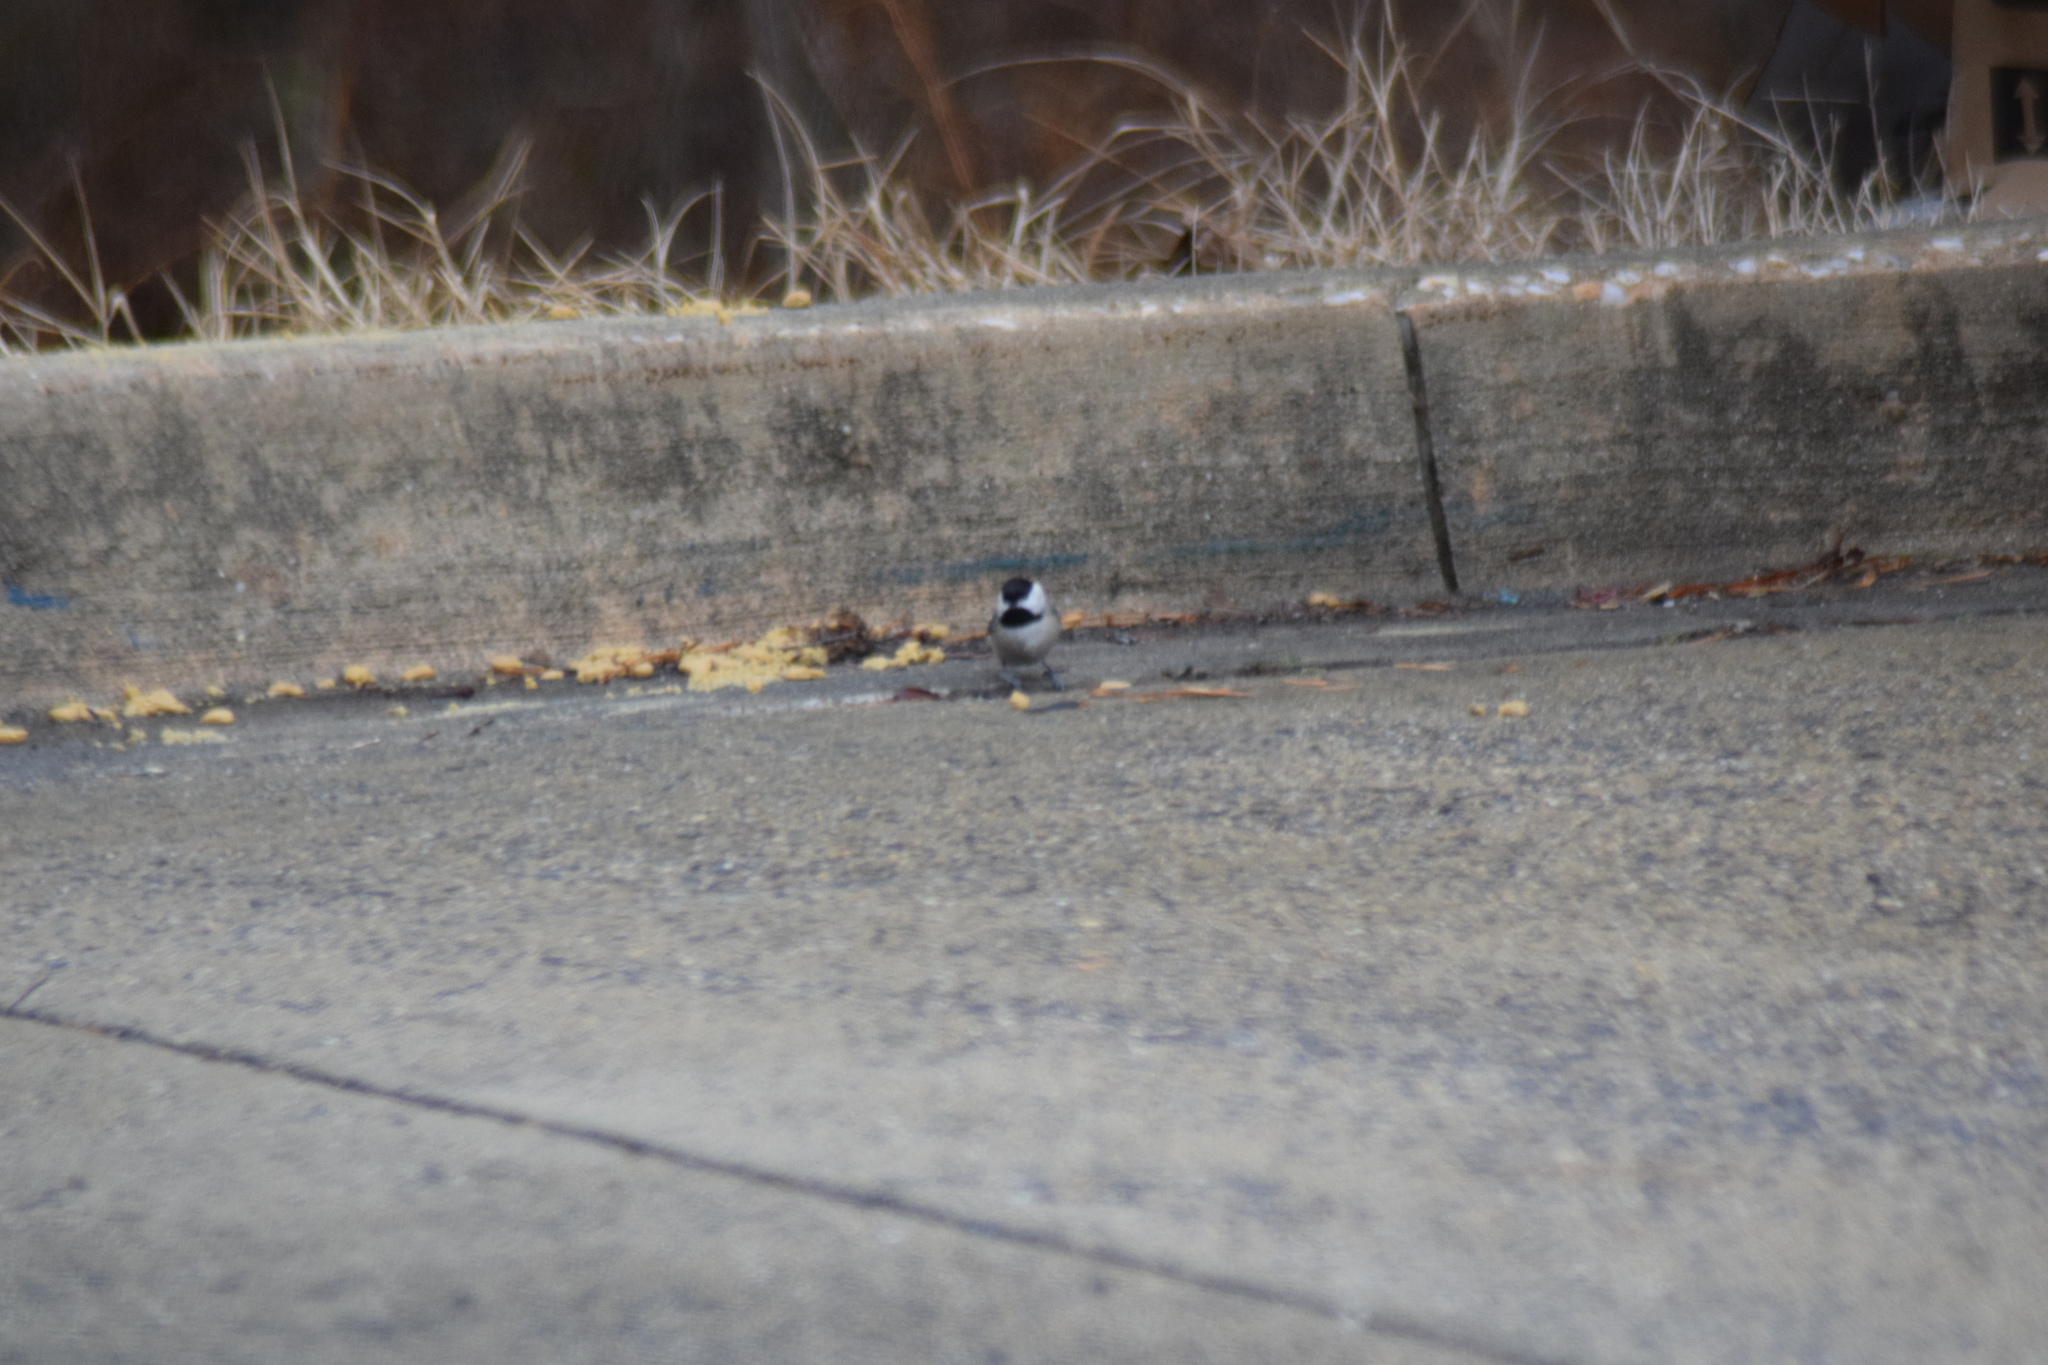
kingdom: Animalia
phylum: Chordata
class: Aves
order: Passeriformes
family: Paridae
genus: Poecile
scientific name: Poecile carolinensis
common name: Carolina chickadee
